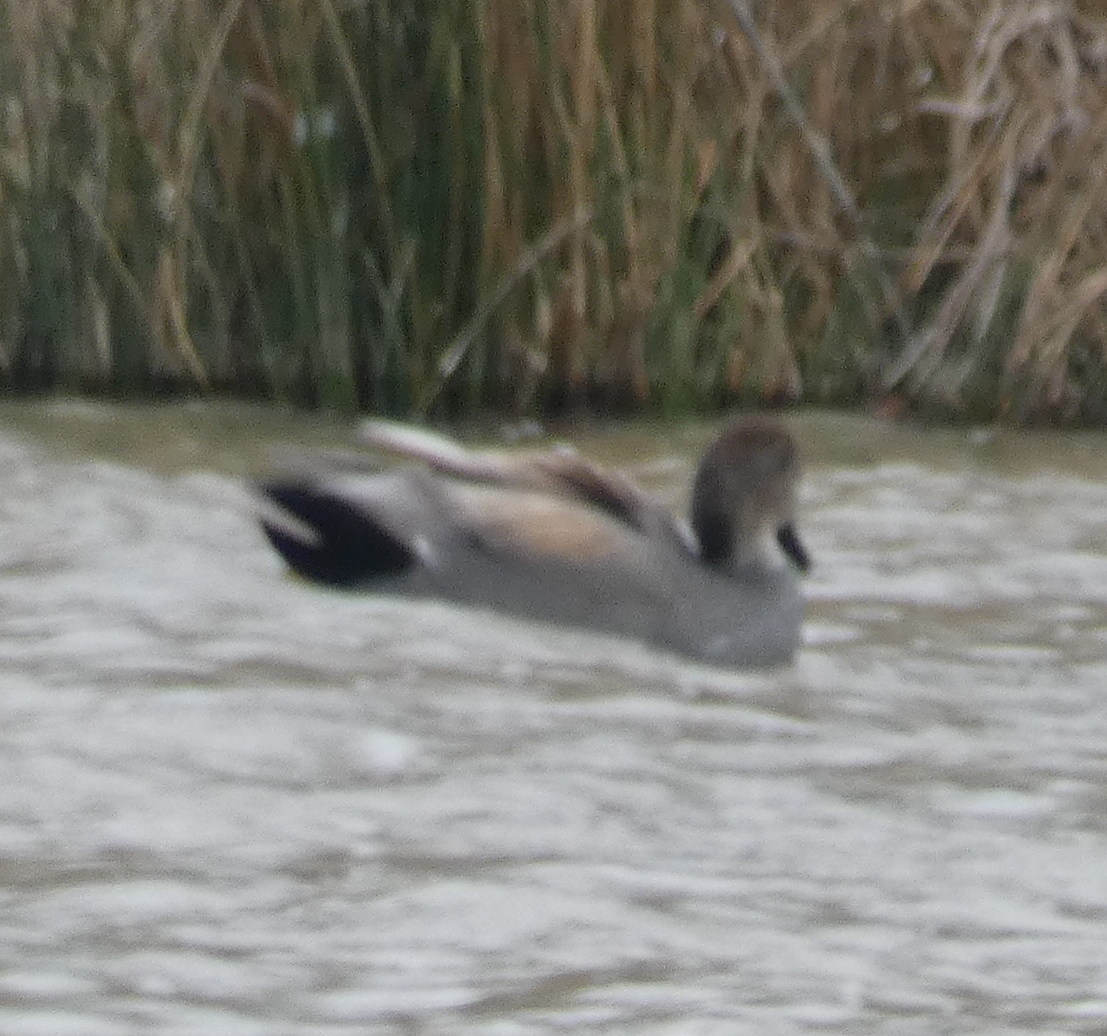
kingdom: Animalia
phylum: Chordata
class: Aves
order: Anseriformes
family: Anatidae
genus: Mareca
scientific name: Mareca strepera
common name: Gadwall
